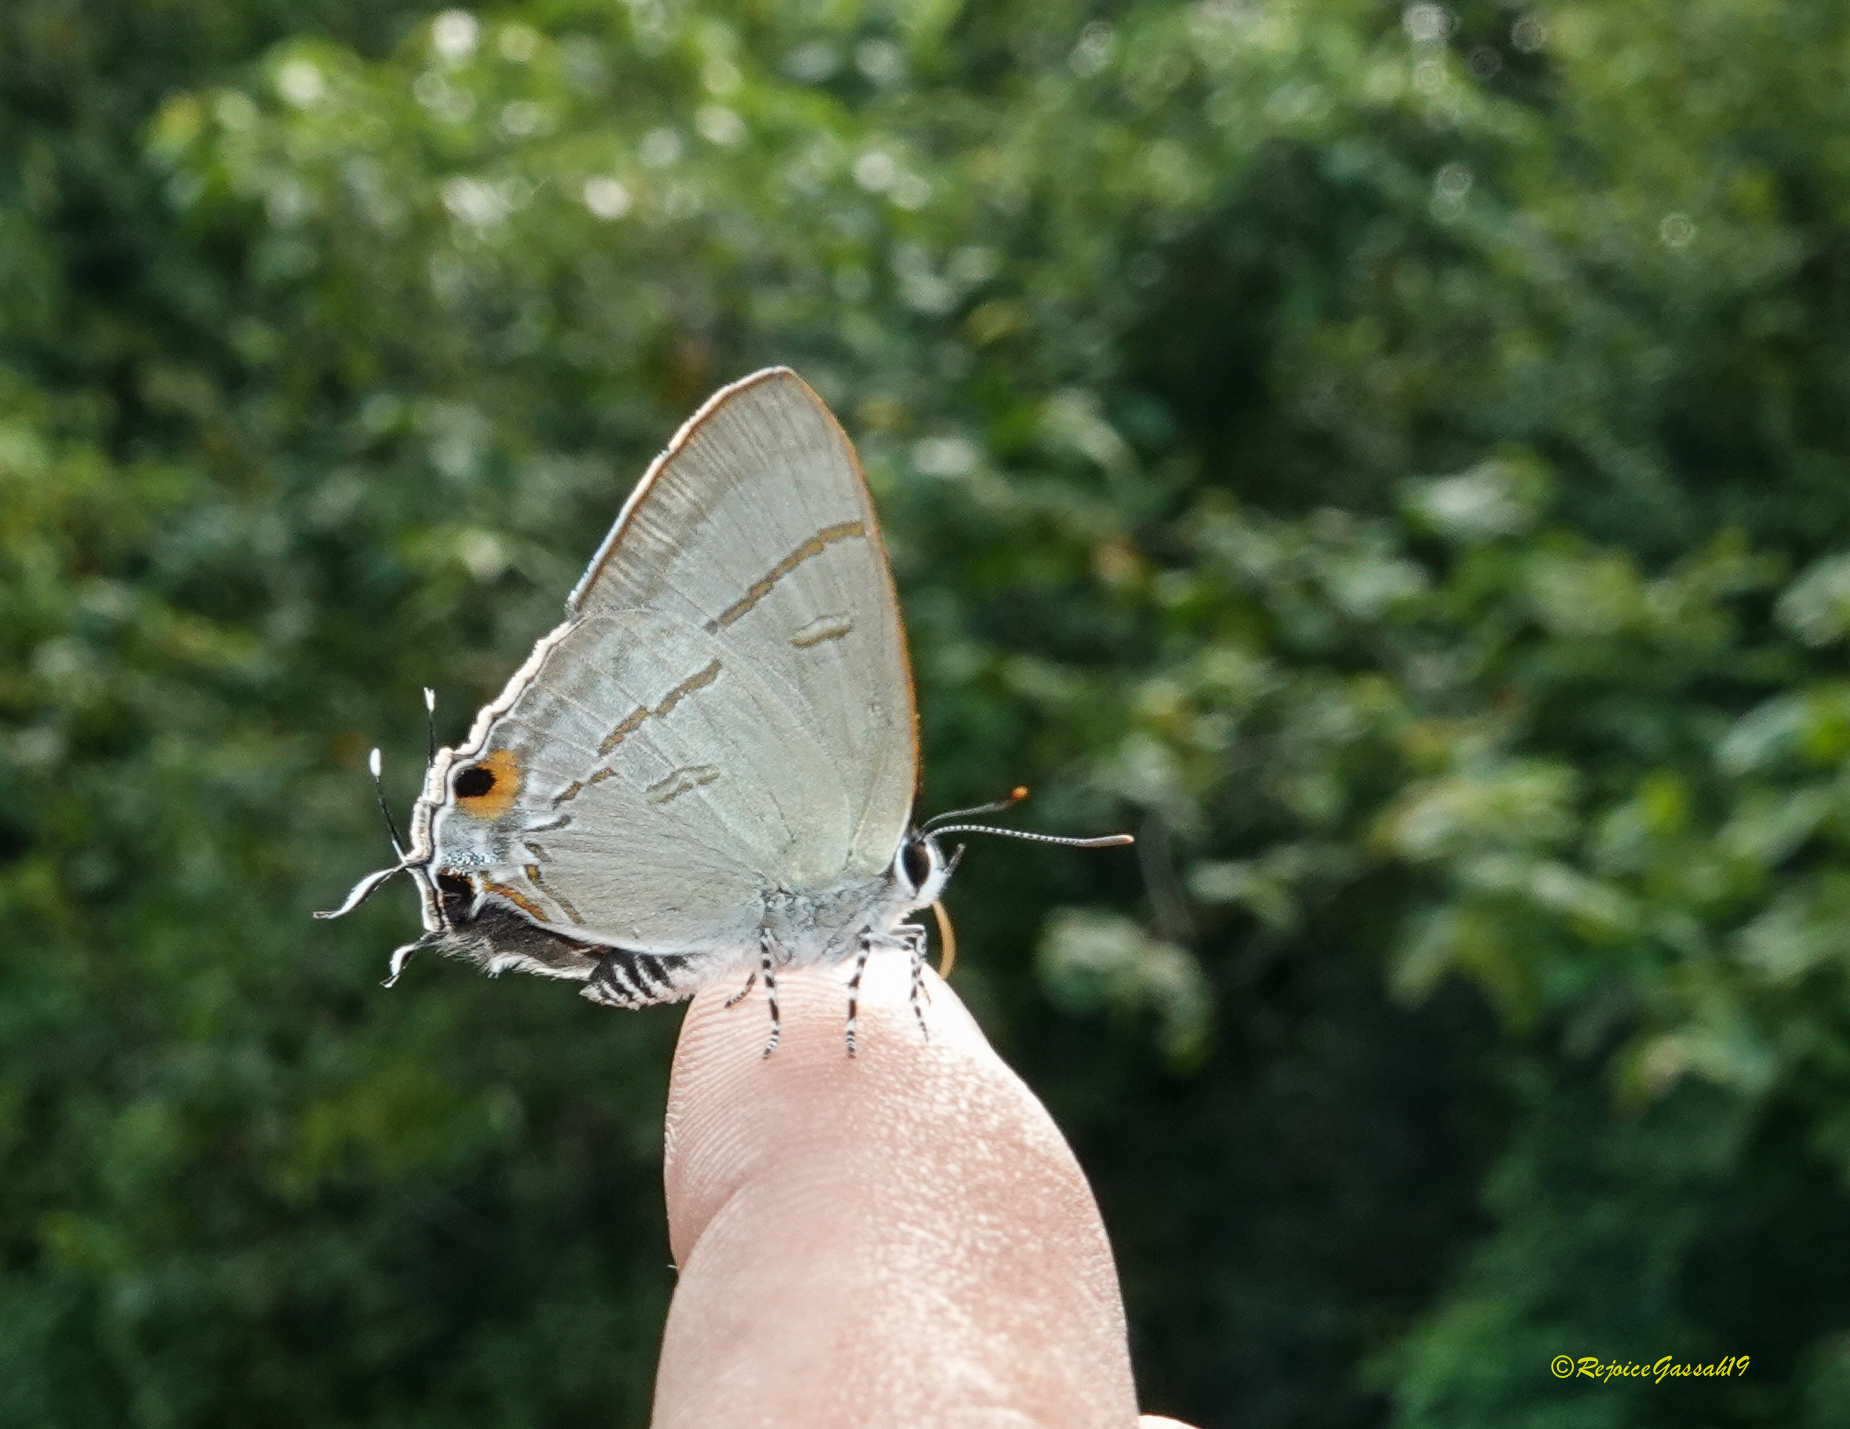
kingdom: Animalia
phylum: Arthropoda
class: Insecta
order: Lepidoptera
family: Lycaenidae
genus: Hypolycaena
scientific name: Hypolycaena erylus
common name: Common tit
